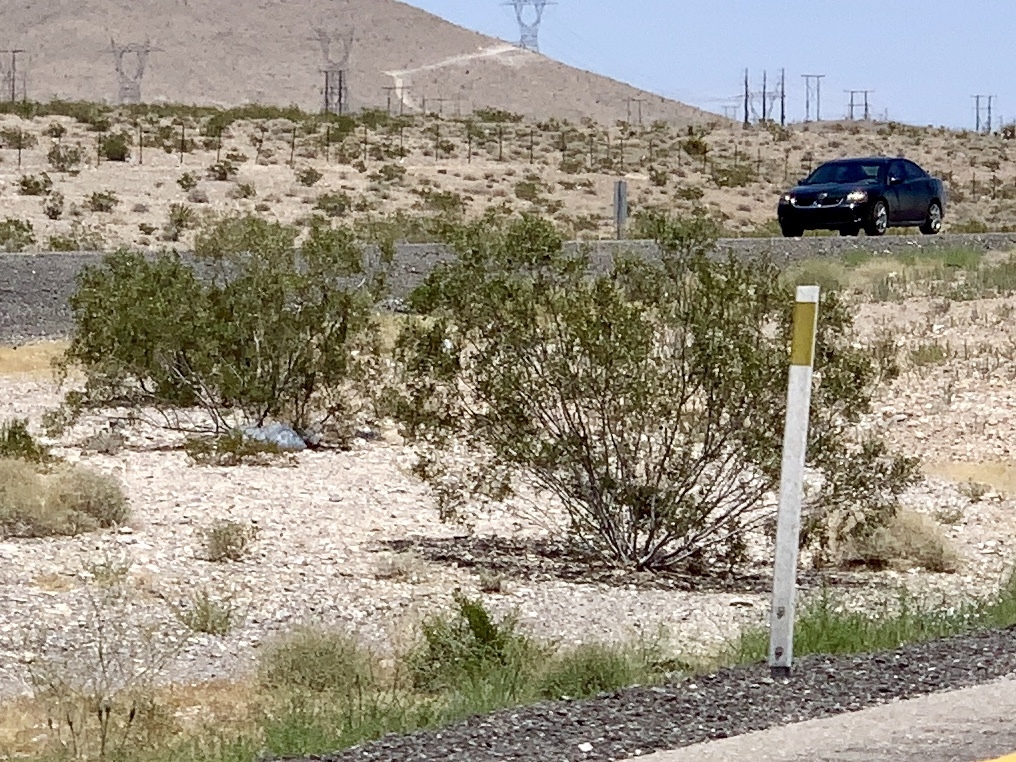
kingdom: Plantae
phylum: Tracheophyta
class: Magnoliopsida
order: Zygophyllales
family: Zygophyllaceae
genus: Larrea
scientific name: Larrea tridentata
